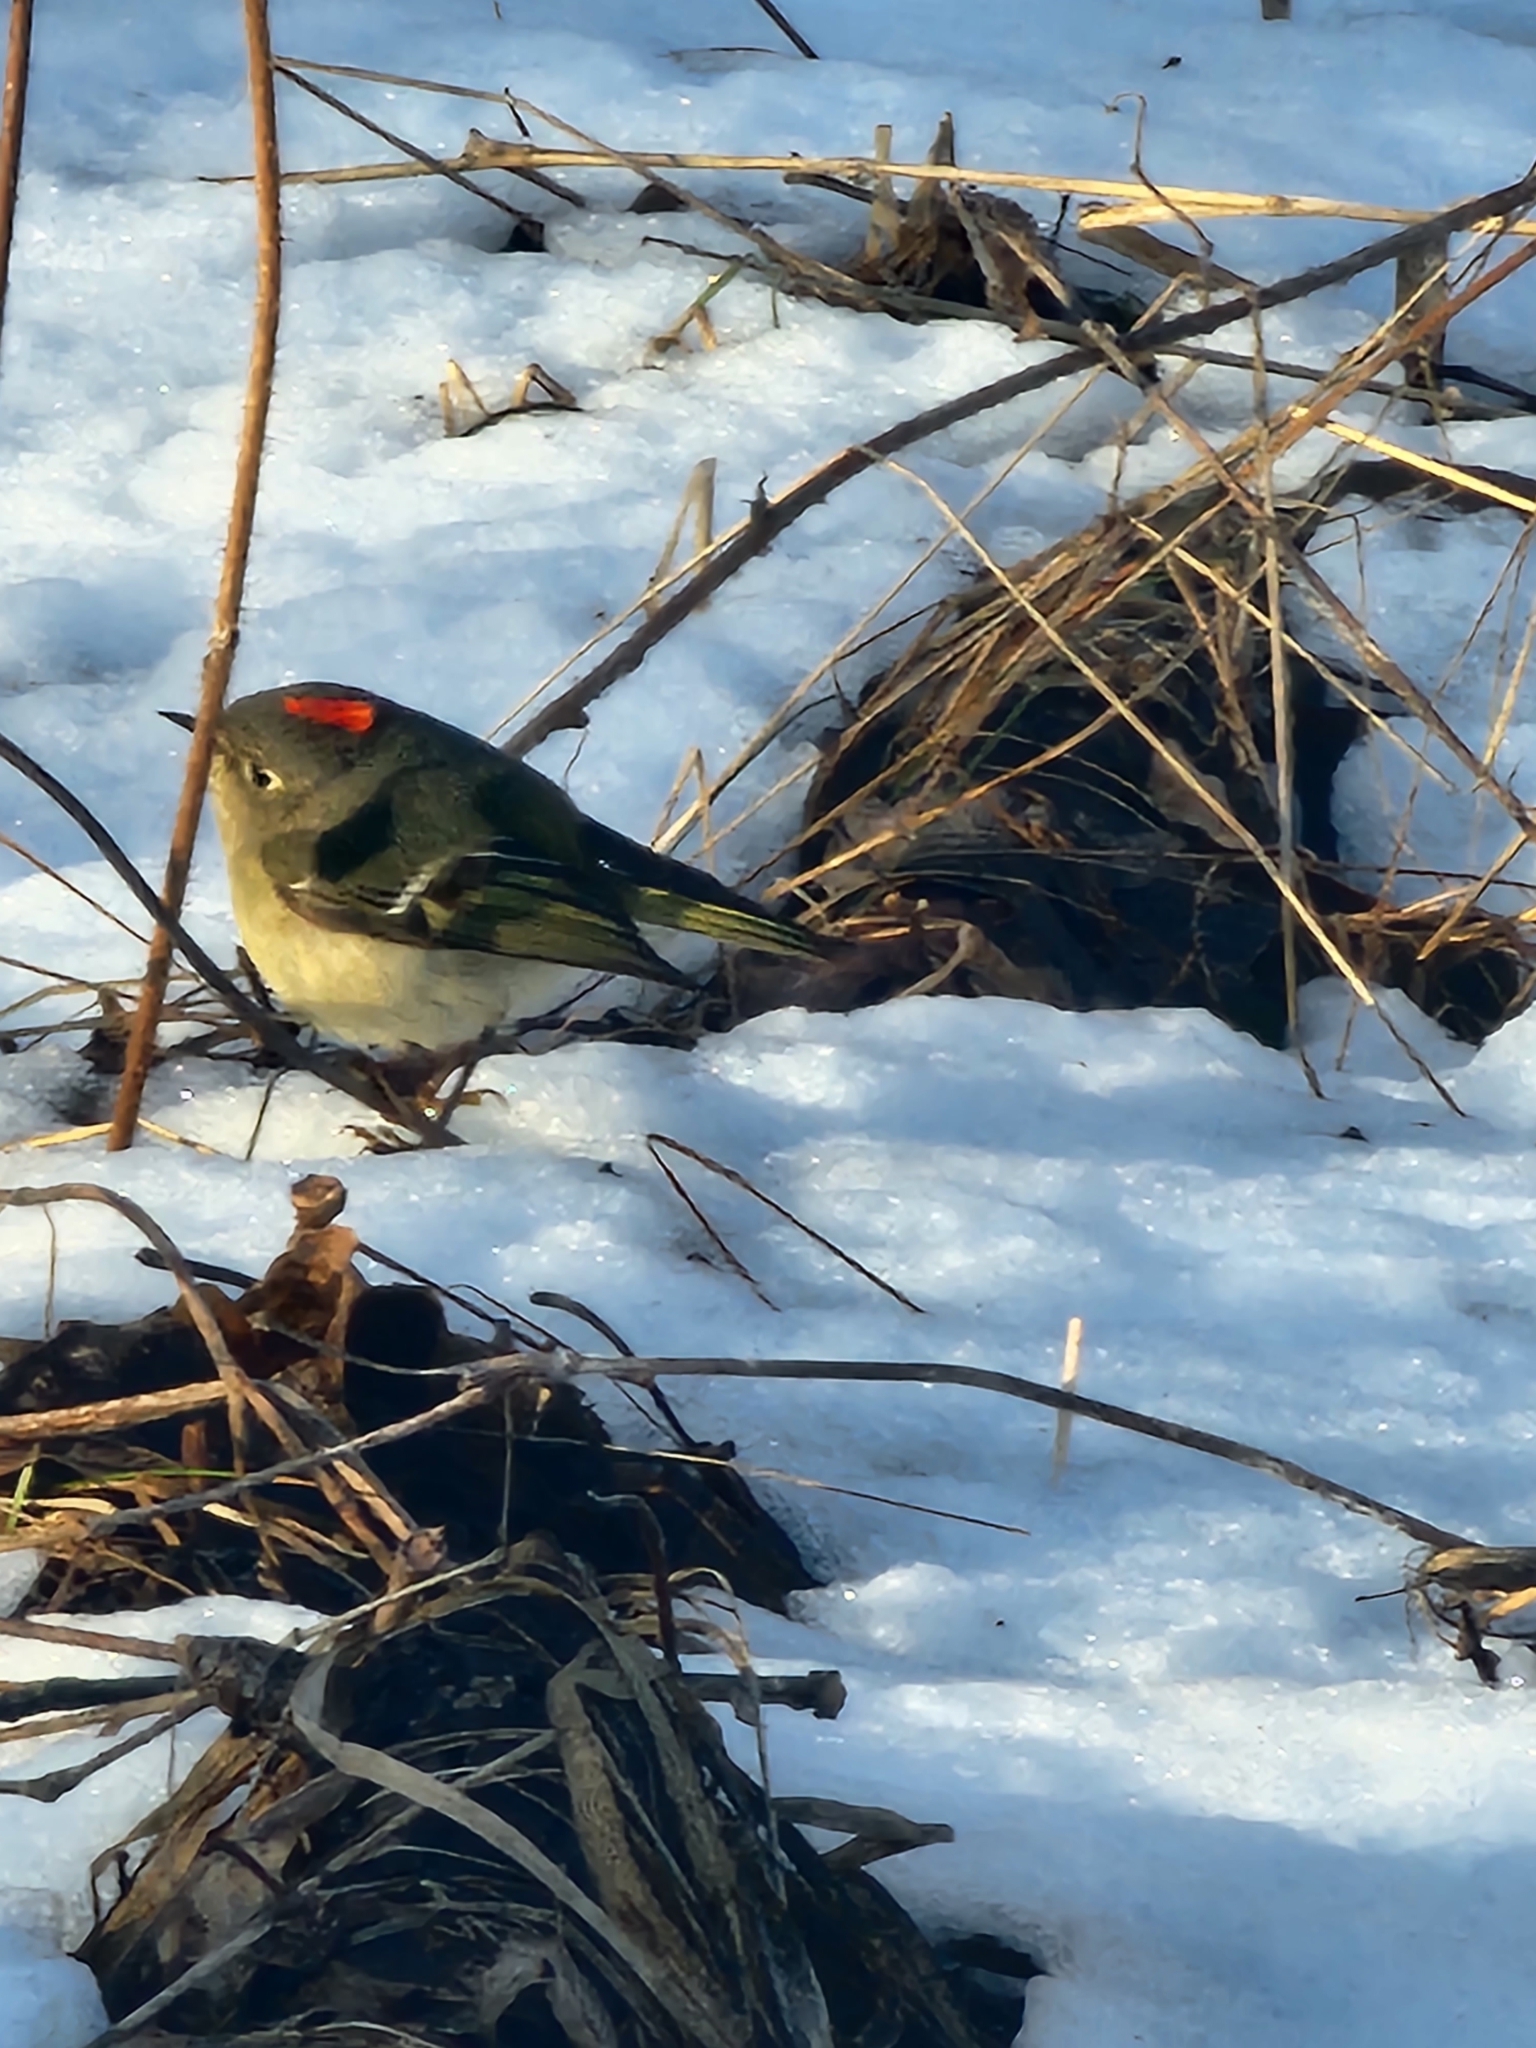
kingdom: Animalia
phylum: Chordata
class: Aves
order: Passeriformes
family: Regulidae
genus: Regulus
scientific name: Regulus calendula
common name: Ruby-crowned kinglet
